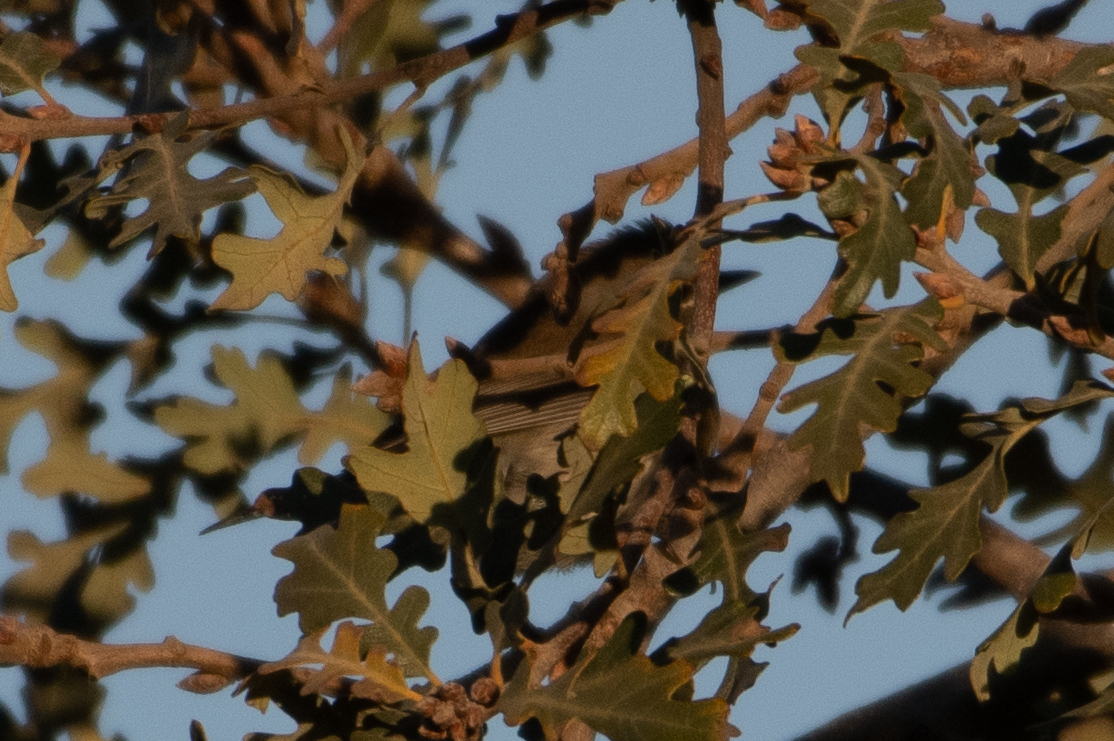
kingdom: Animalia
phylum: Chordata
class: Aves
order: Passeriformes
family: Parulidae
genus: Setophaga
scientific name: Setophaga coronata
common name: Myrtle warbler
